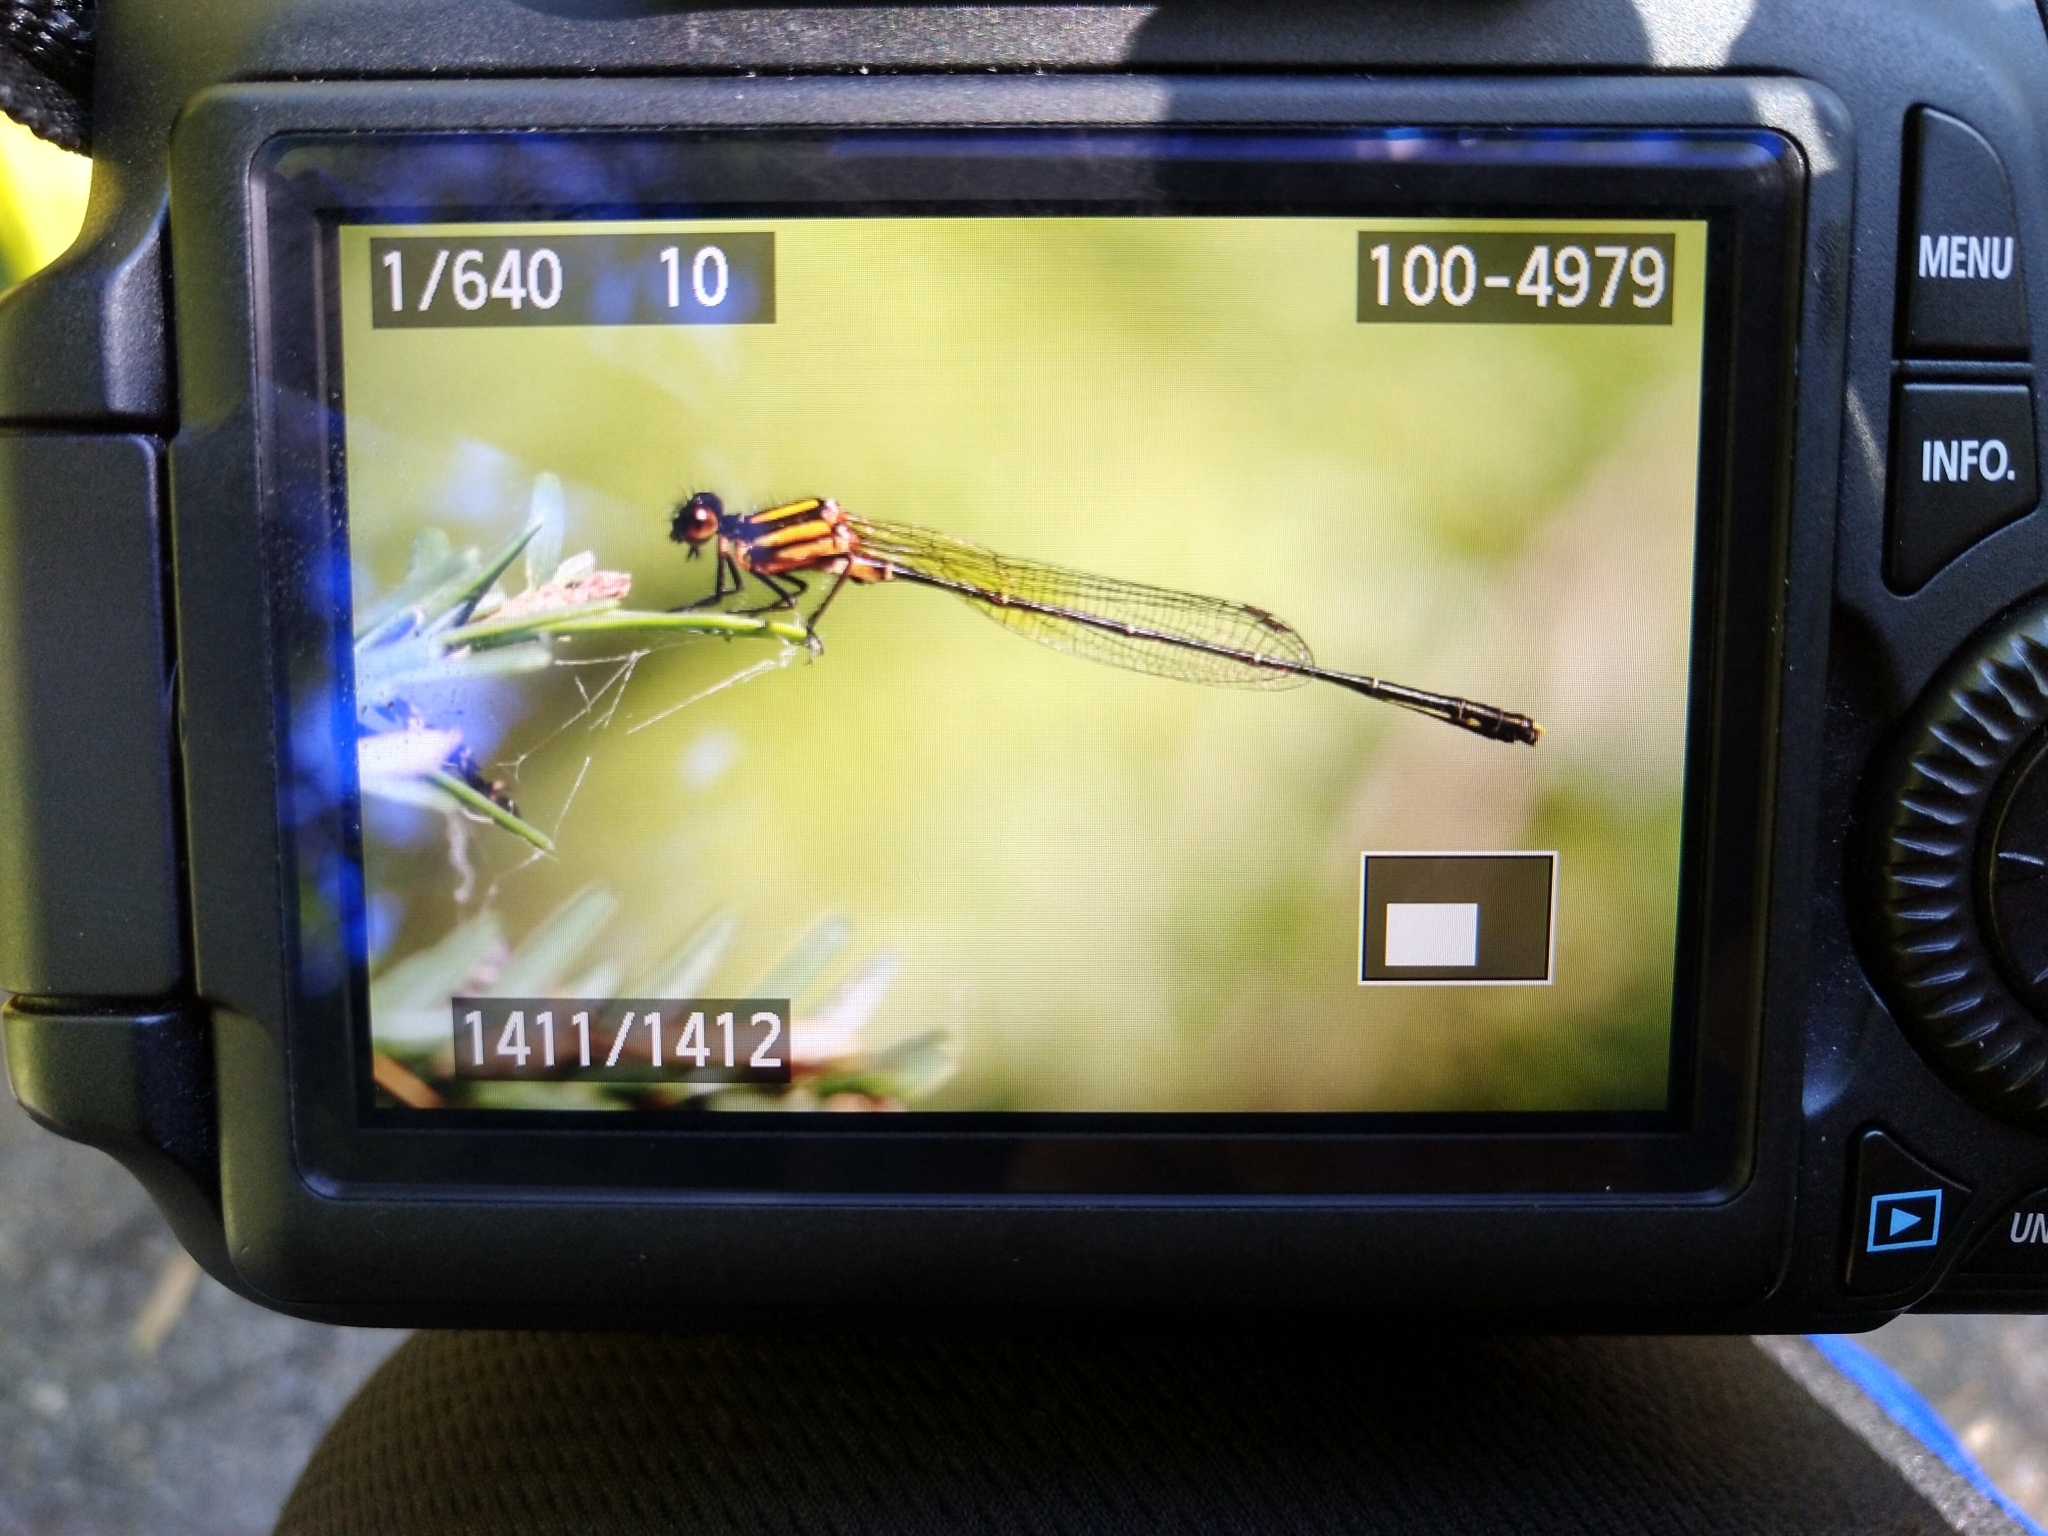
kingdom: Animalia
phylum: Arthropoda
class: Insecta
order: Odonata
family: Platycnemididae
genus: Nososticta
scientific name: Nososticta solida
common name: Orange threadtail
